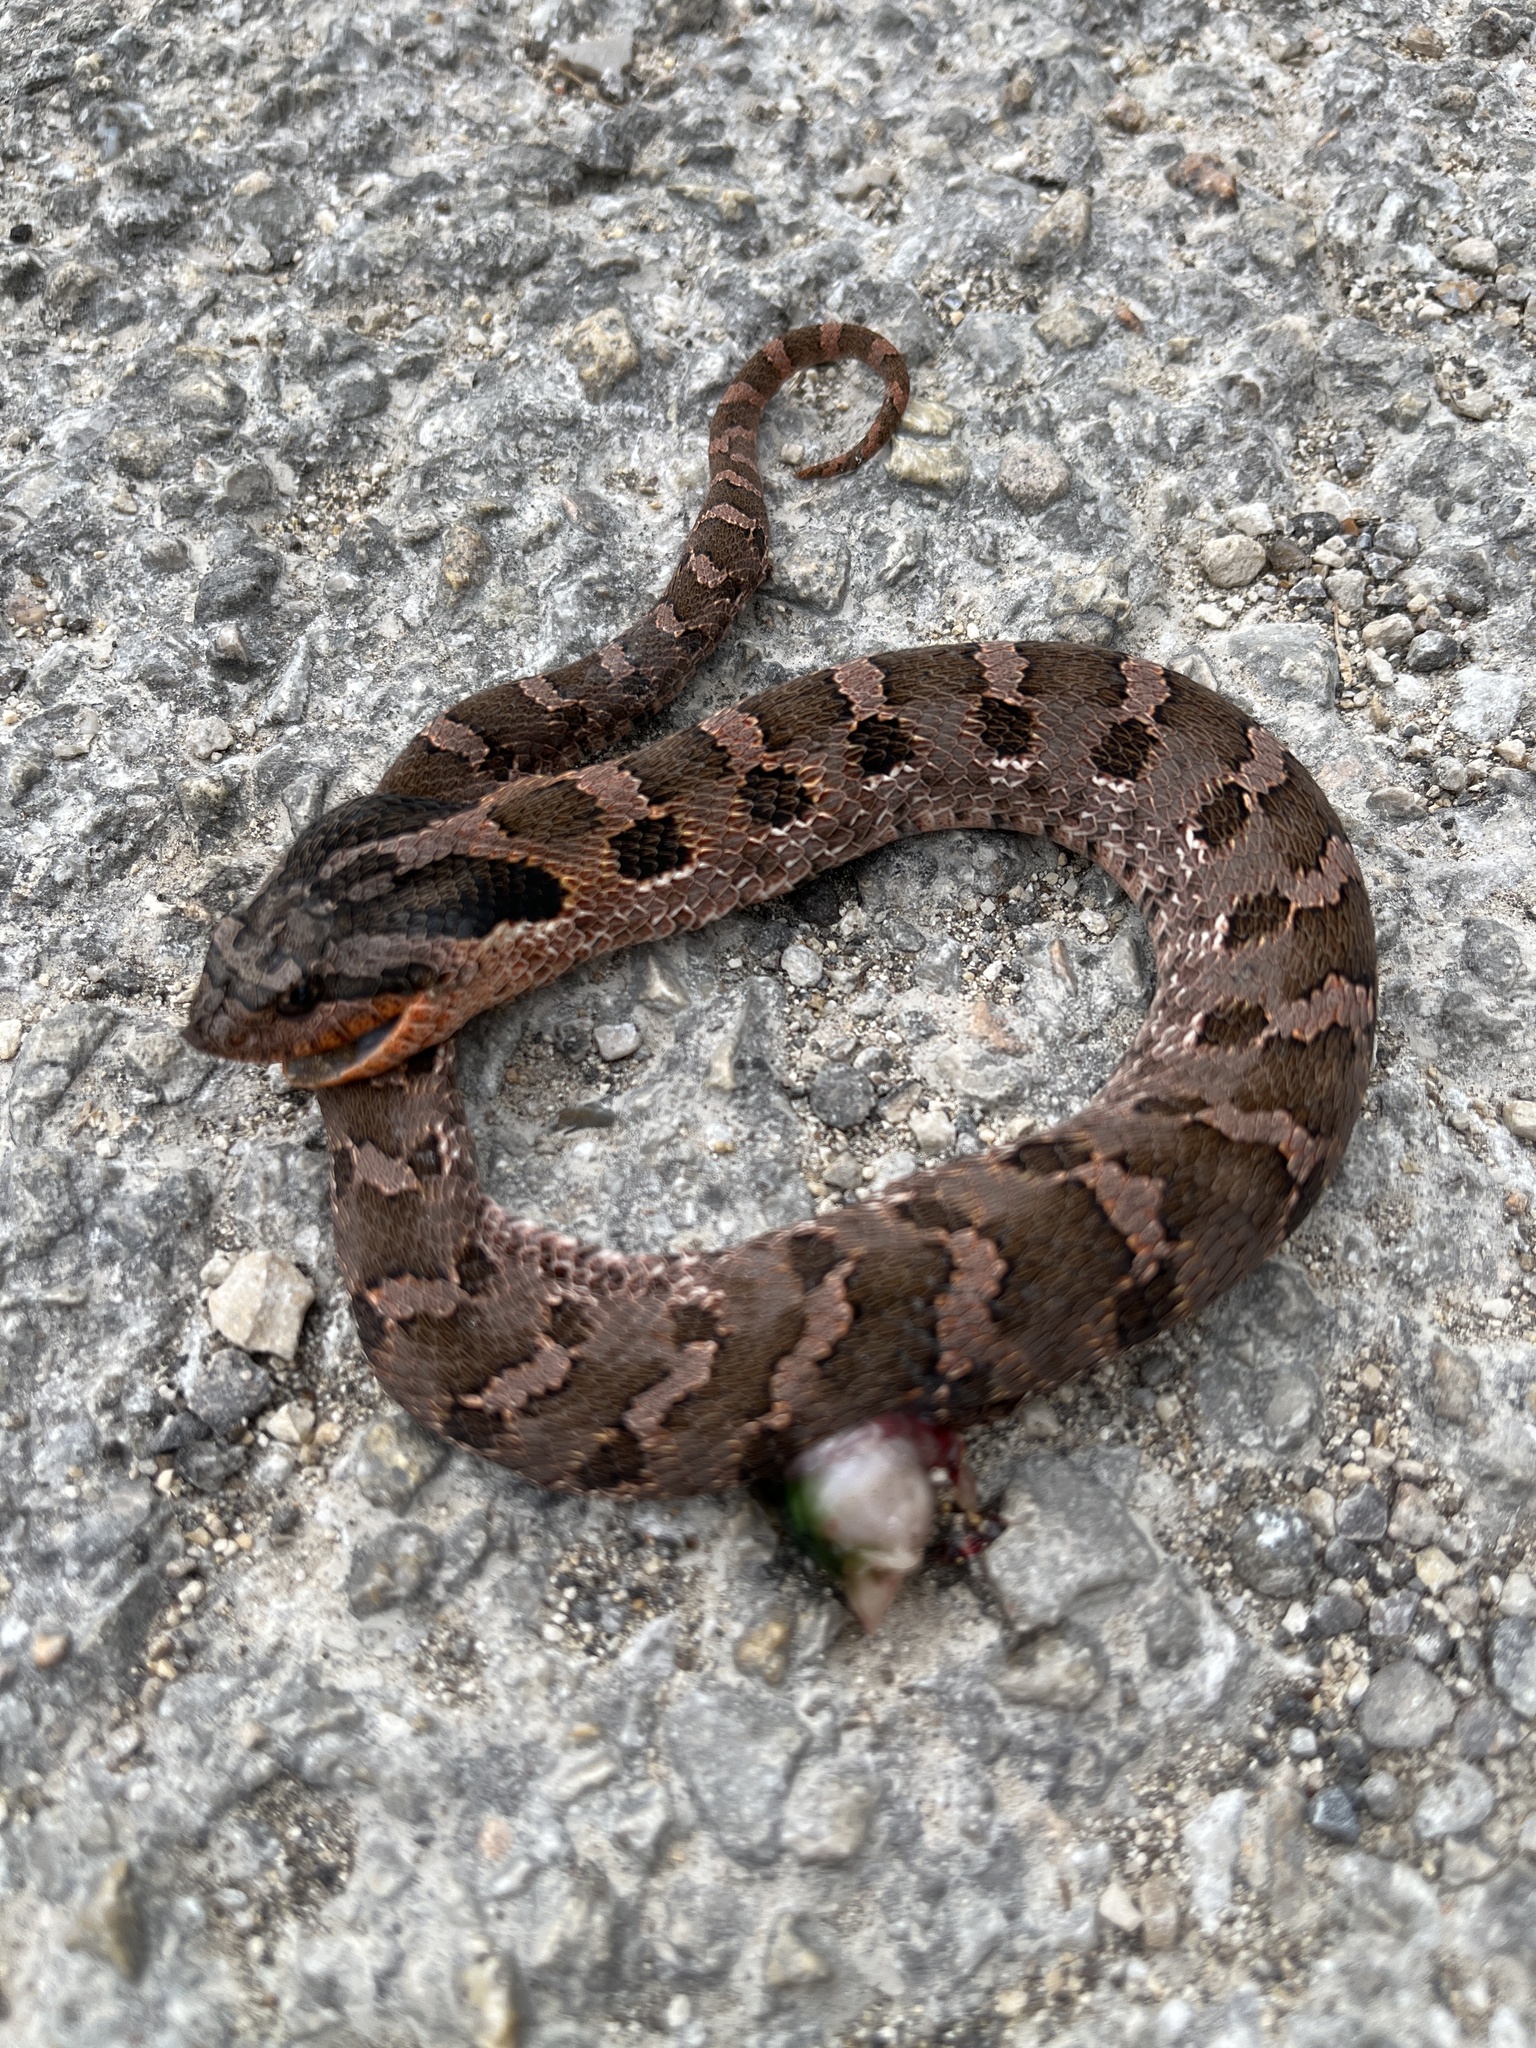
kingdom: Animalia
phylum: Chordata
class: Squamata
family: Colubridae
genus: Heterodon
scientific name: Heterodon platirhinos
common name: Eastern hognose snake
